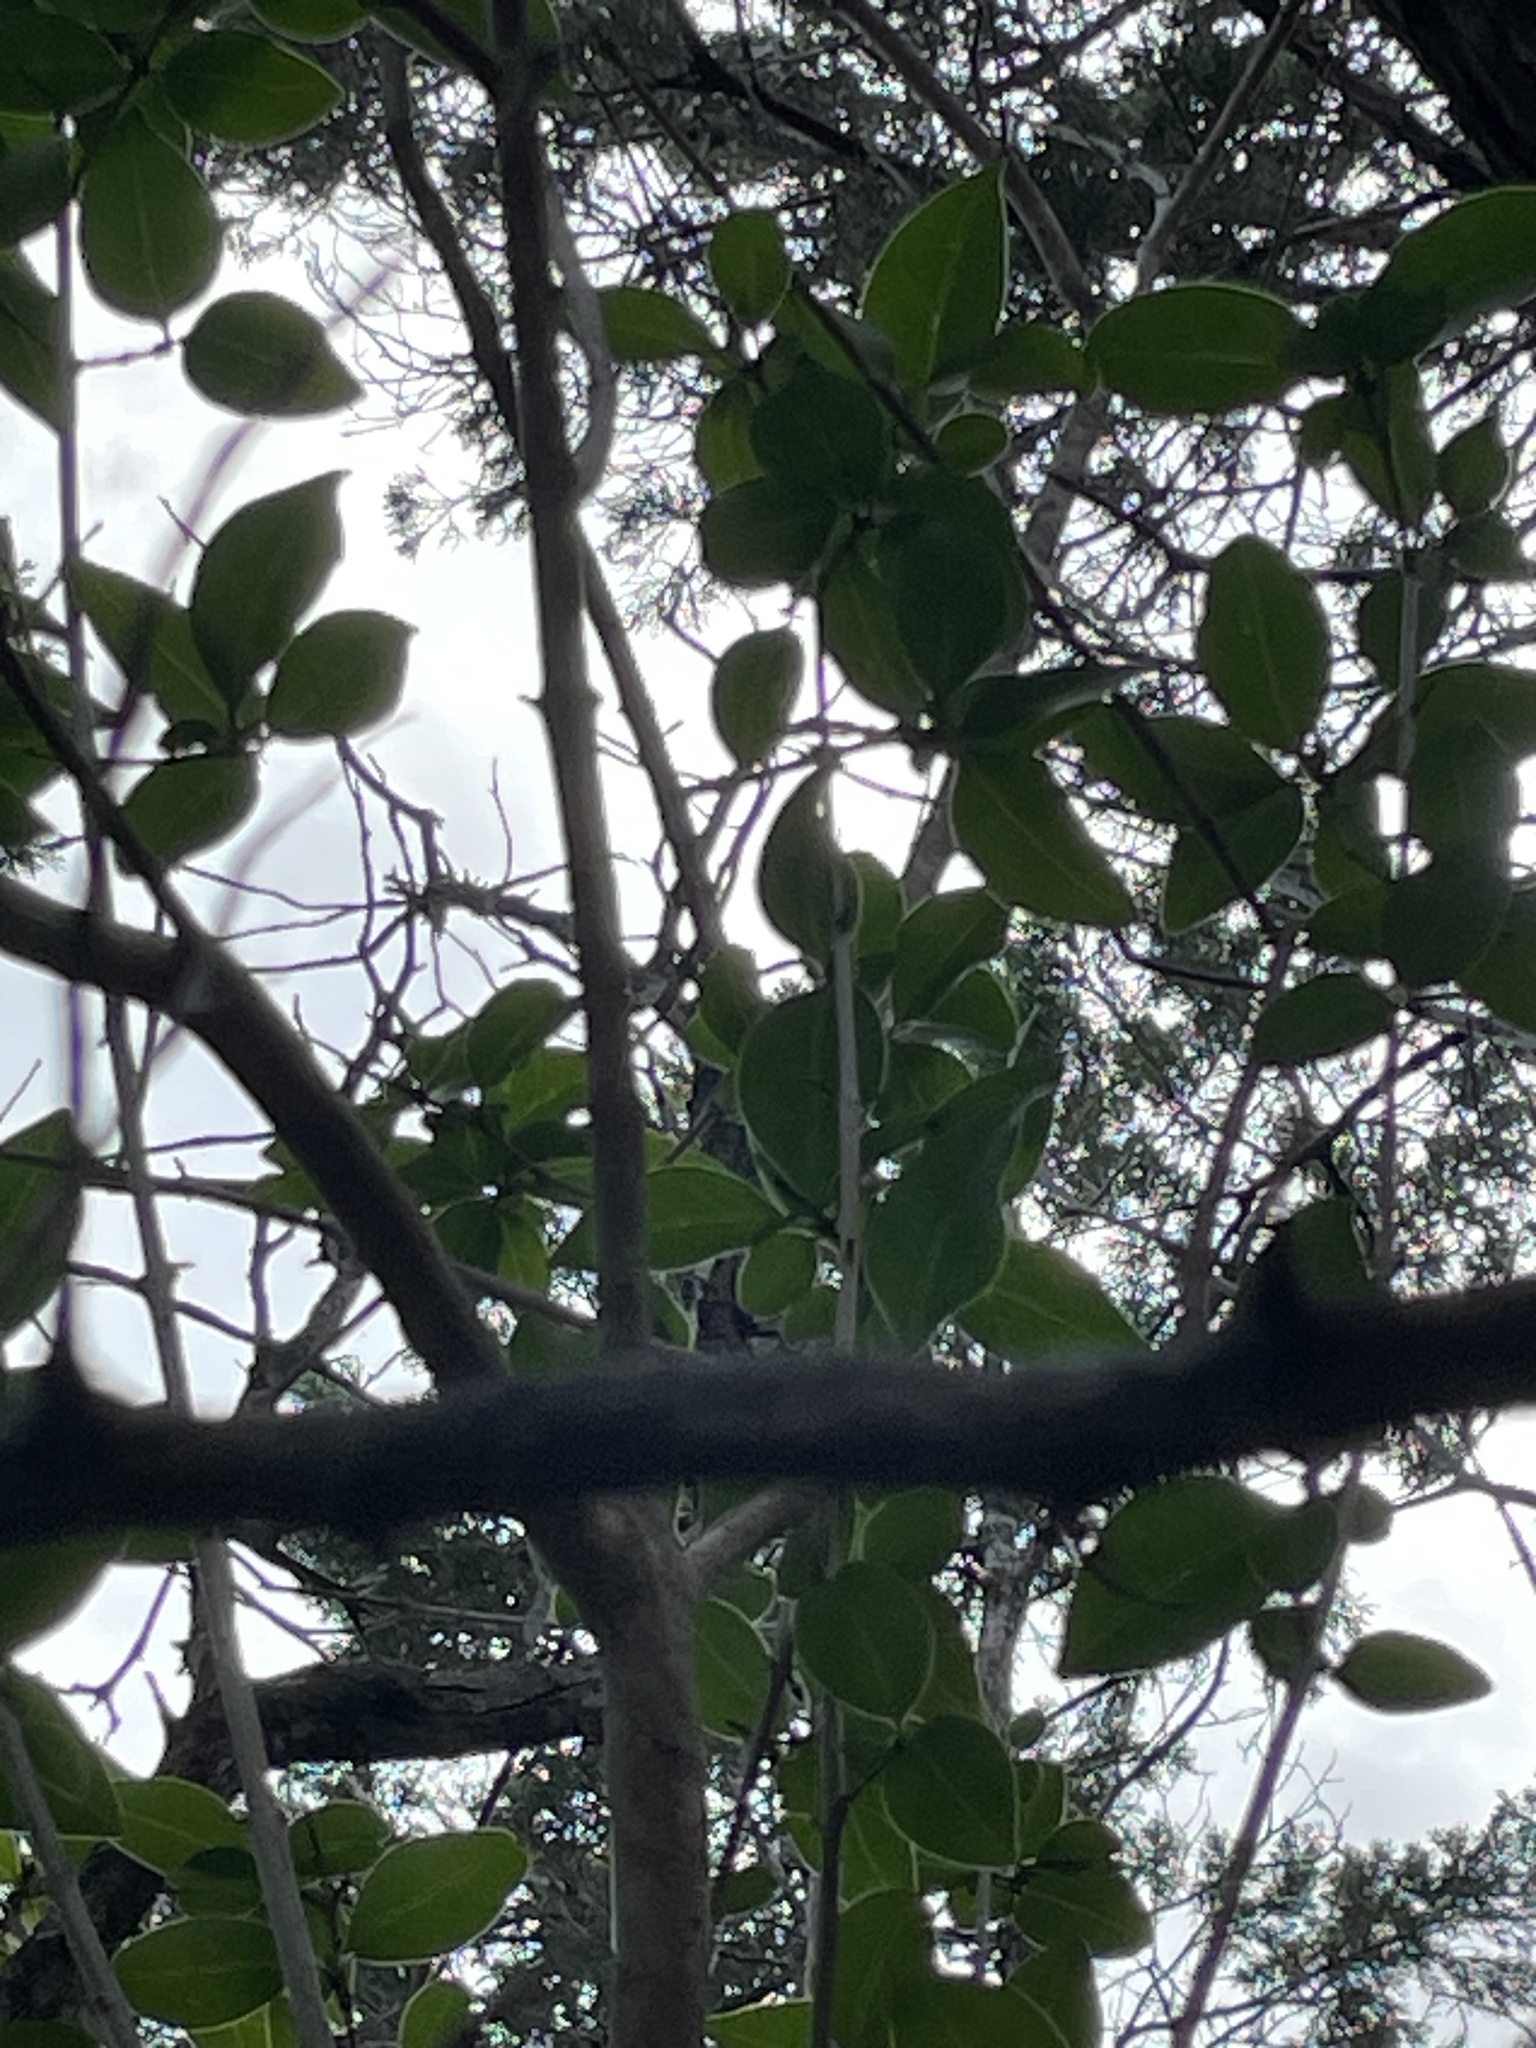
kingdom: Plantae
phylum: Tracheophyta
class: Magnoliopsida
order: Lamiales
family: Oleaceae
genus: Ligustrum
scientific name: Ligustrum lucidum
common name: Glossy privet
